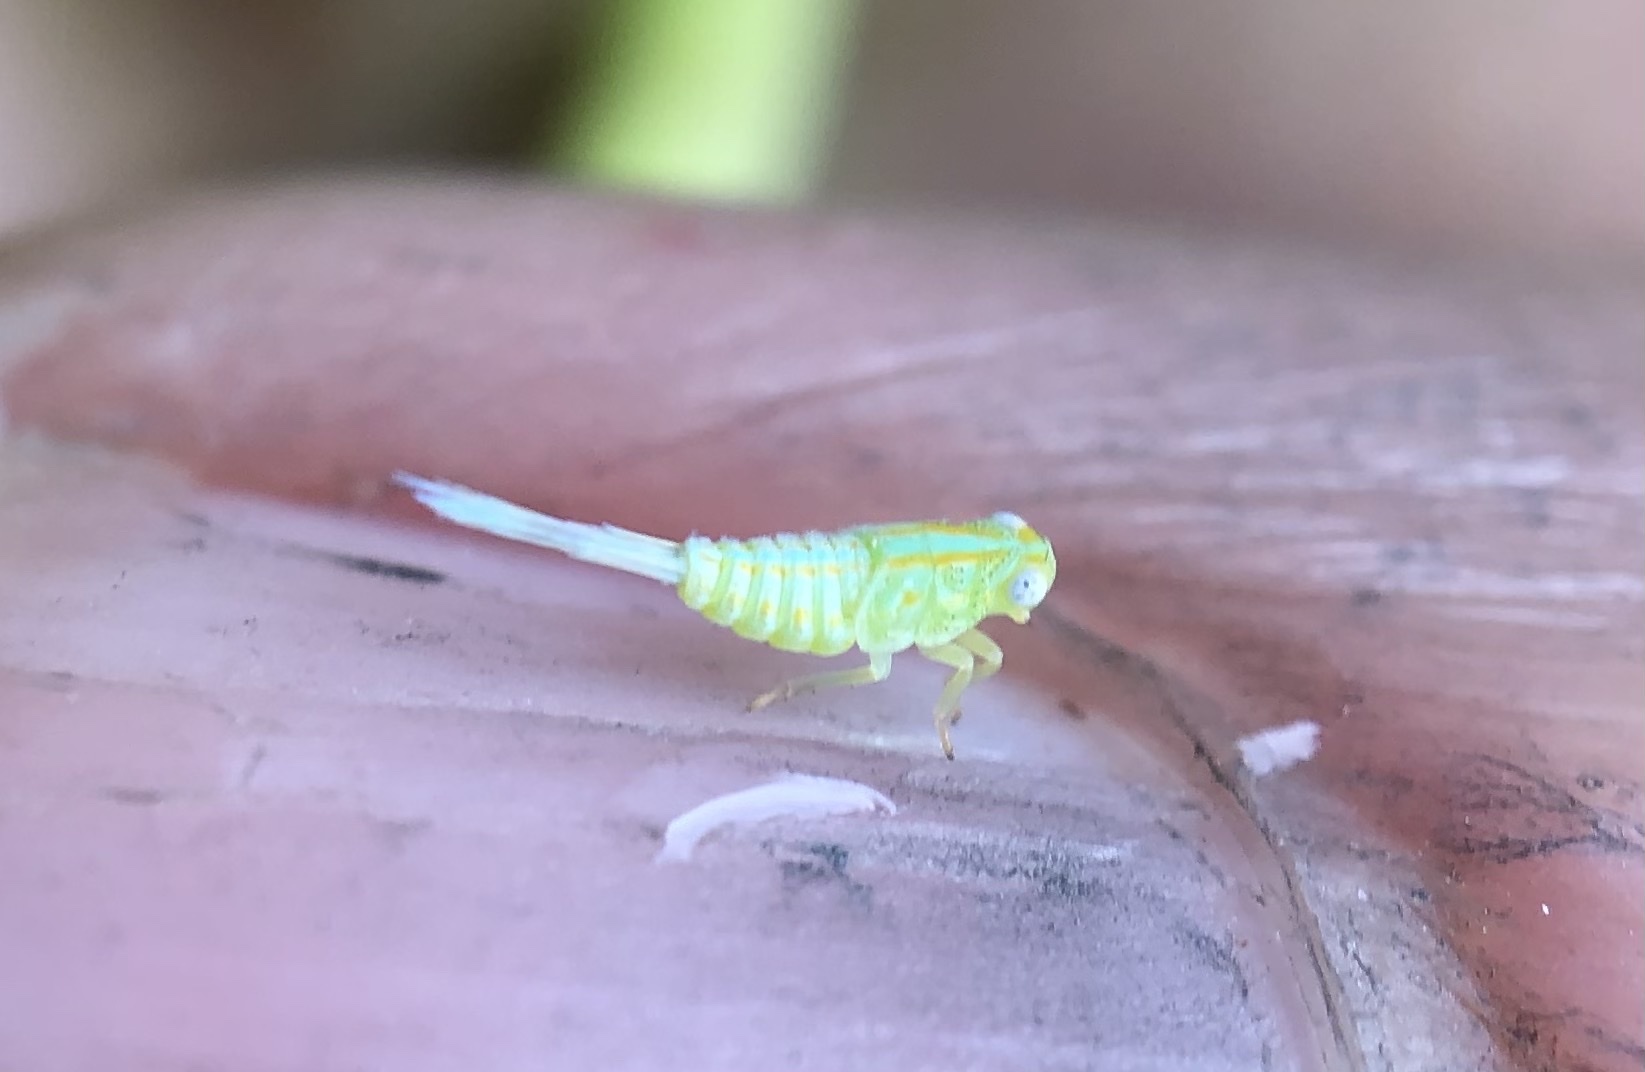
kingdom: Animalia
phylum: Arthropoda
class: Insecta
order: Hemiptera
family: Issidae
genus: Aplos
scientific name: Aplos simplex
